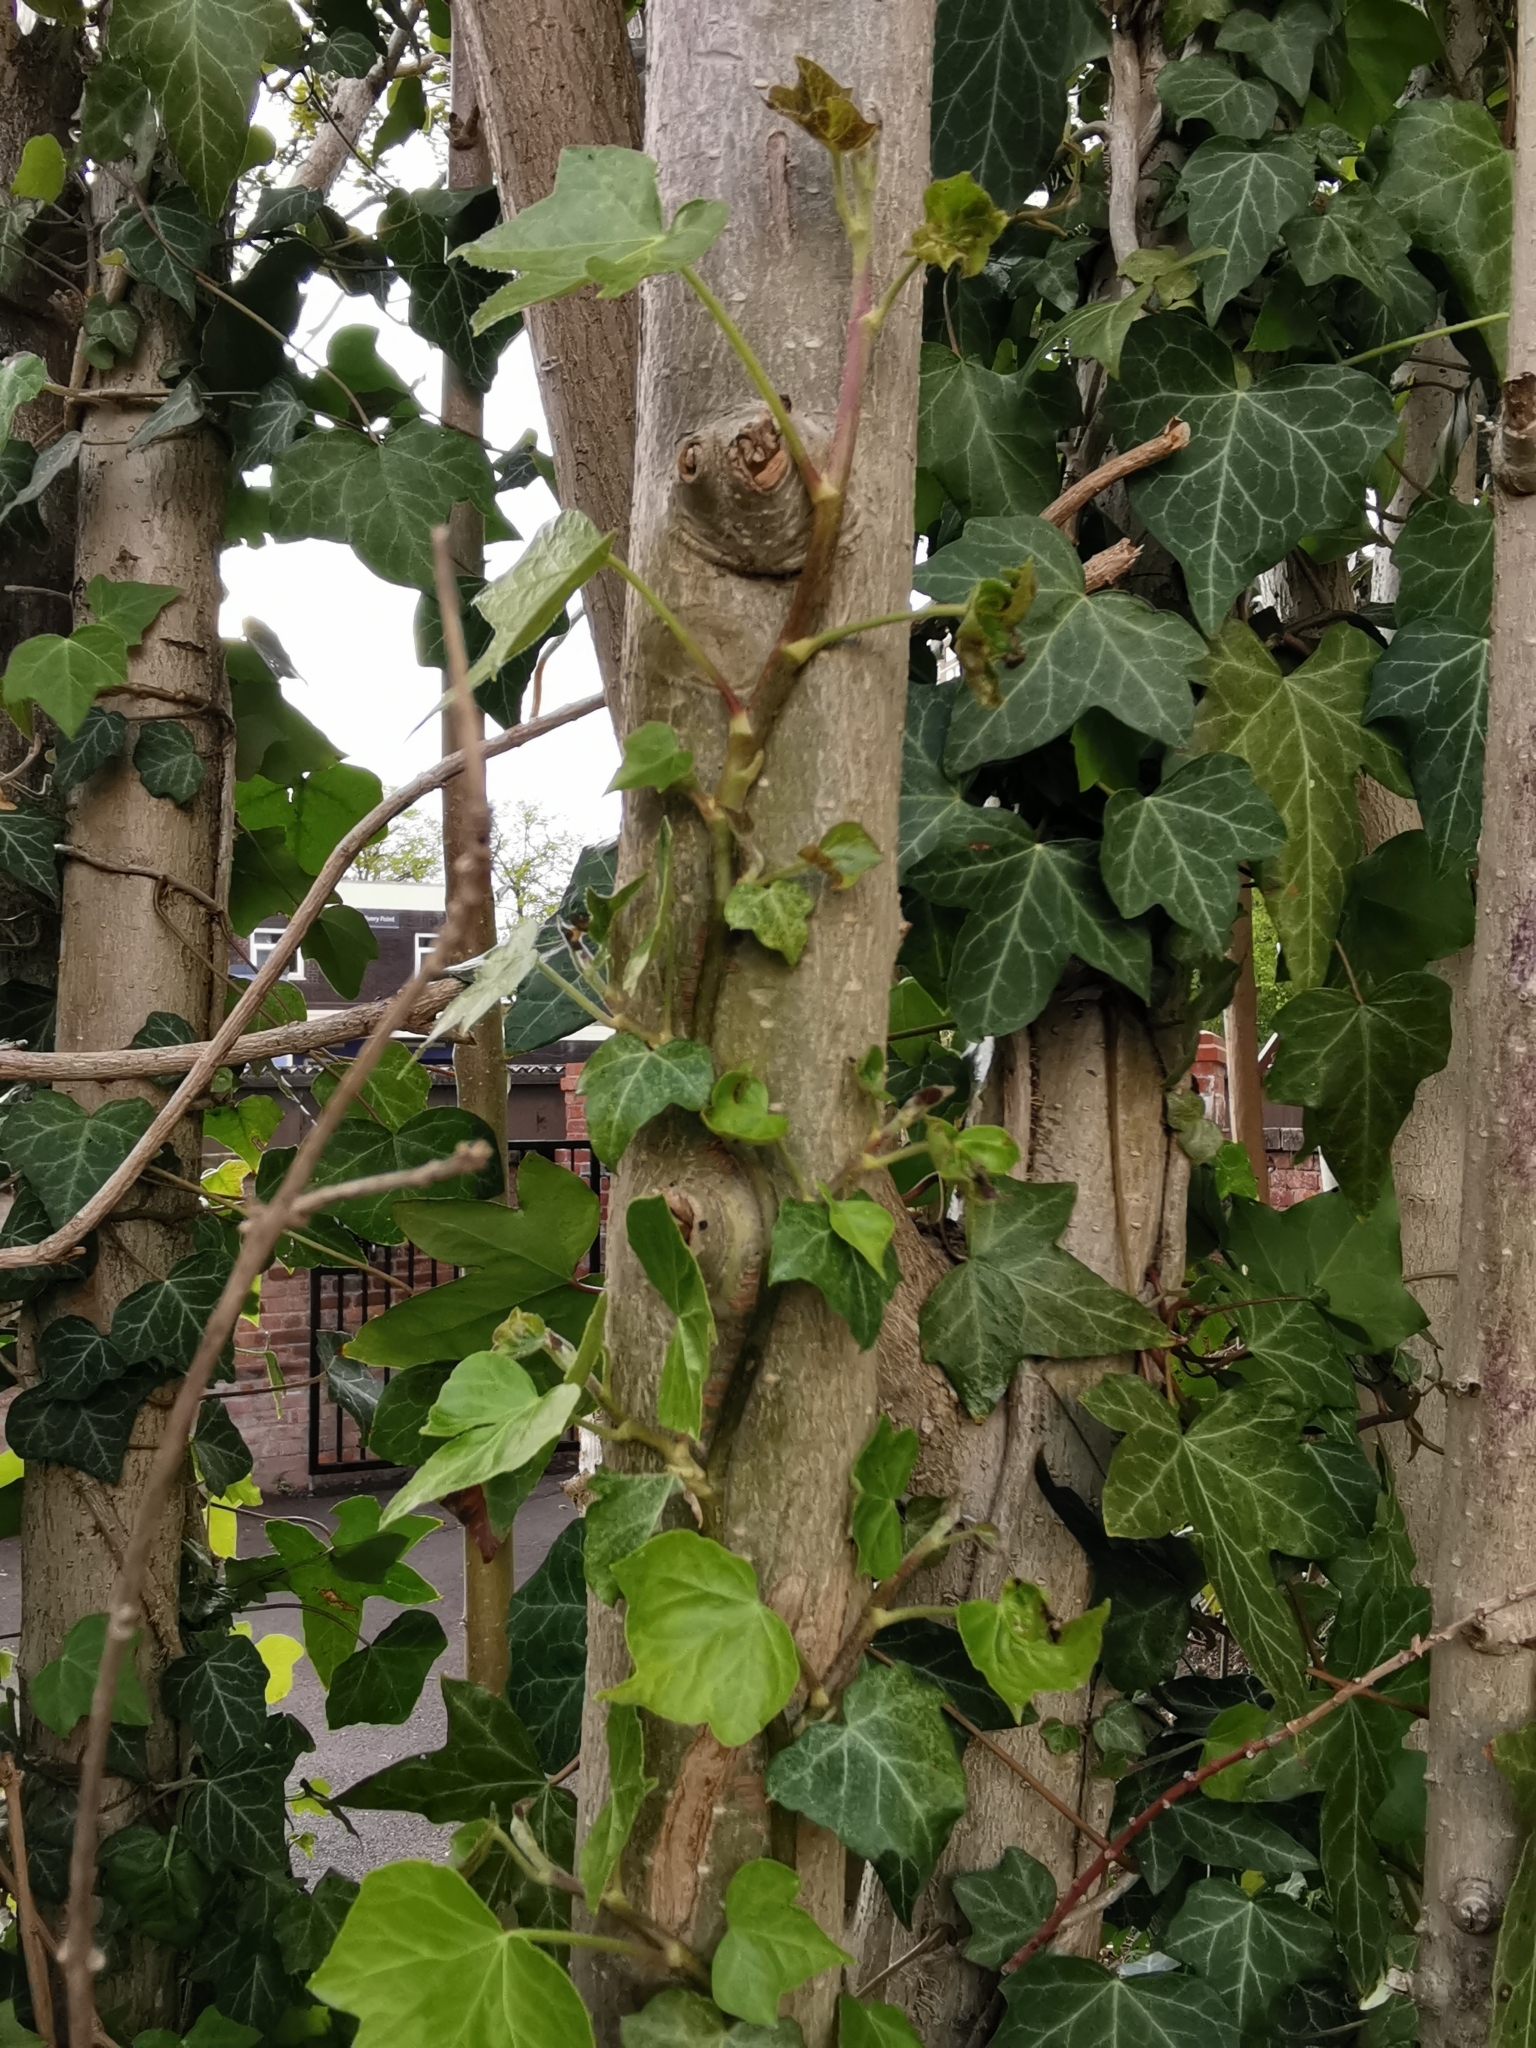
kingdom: Plantae
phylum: Tracheophyta
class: Magnoliopsida
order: Apiales
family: Araliaceae
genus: Hedera
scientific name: Hedera helix
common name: Ivy
